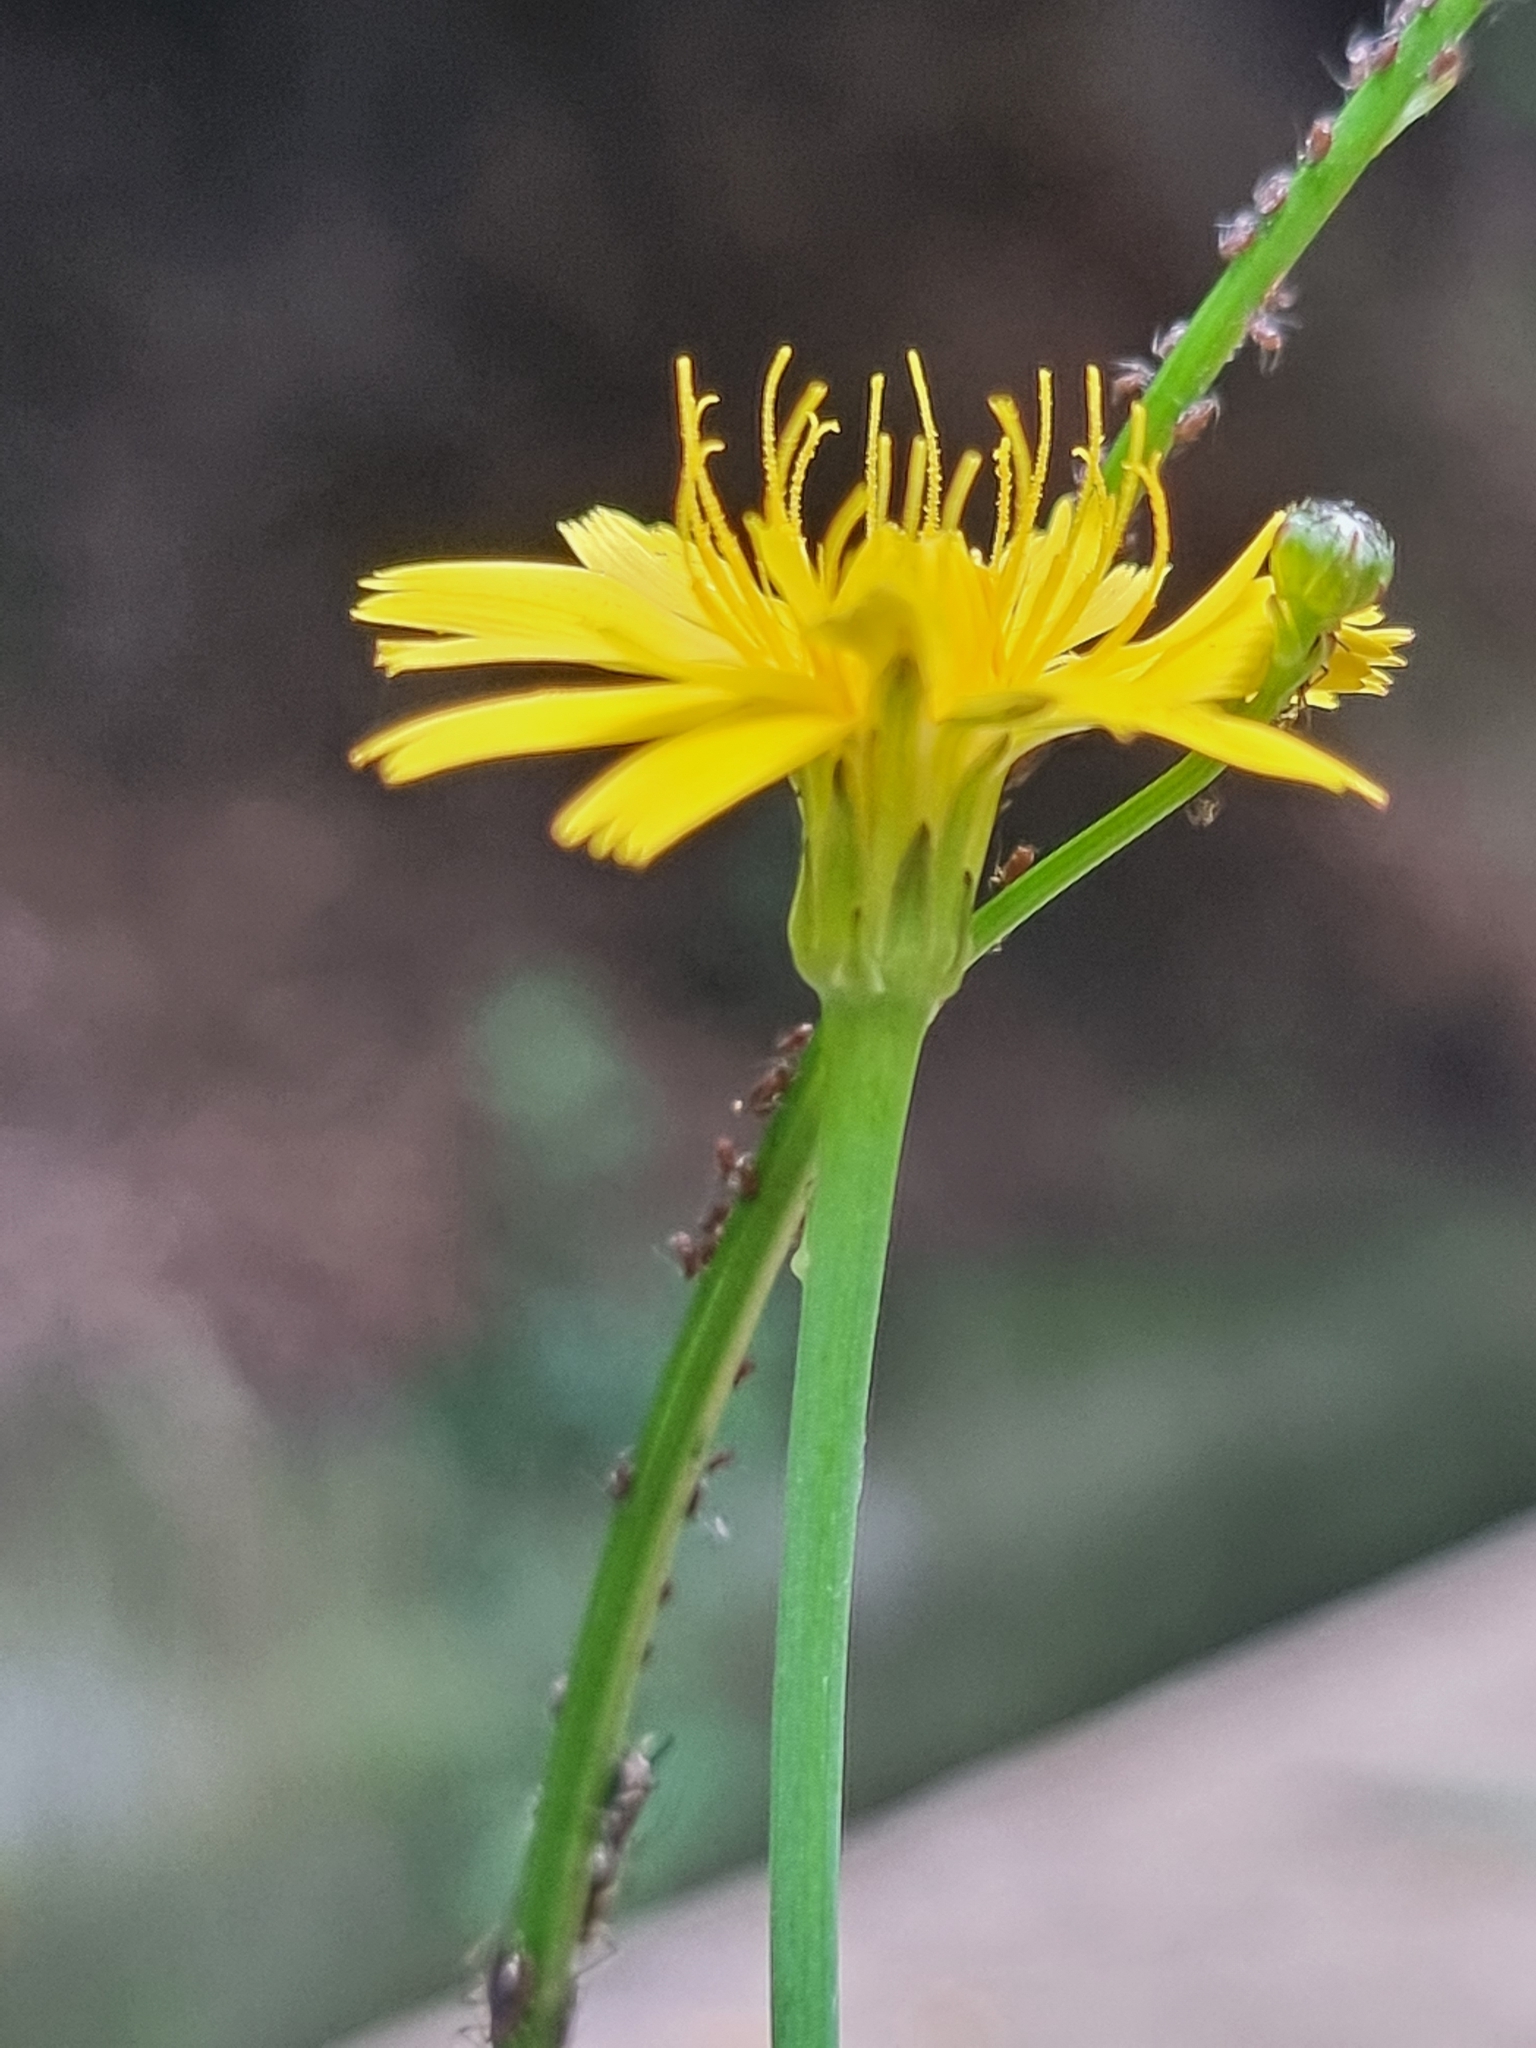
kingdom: Plantae
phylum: Tracheophyta
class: Magnoliopsida
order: Asterales
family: Asteraceae
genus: Hypochaeris
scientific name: Hypochaeris radicata
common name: Flatweed
